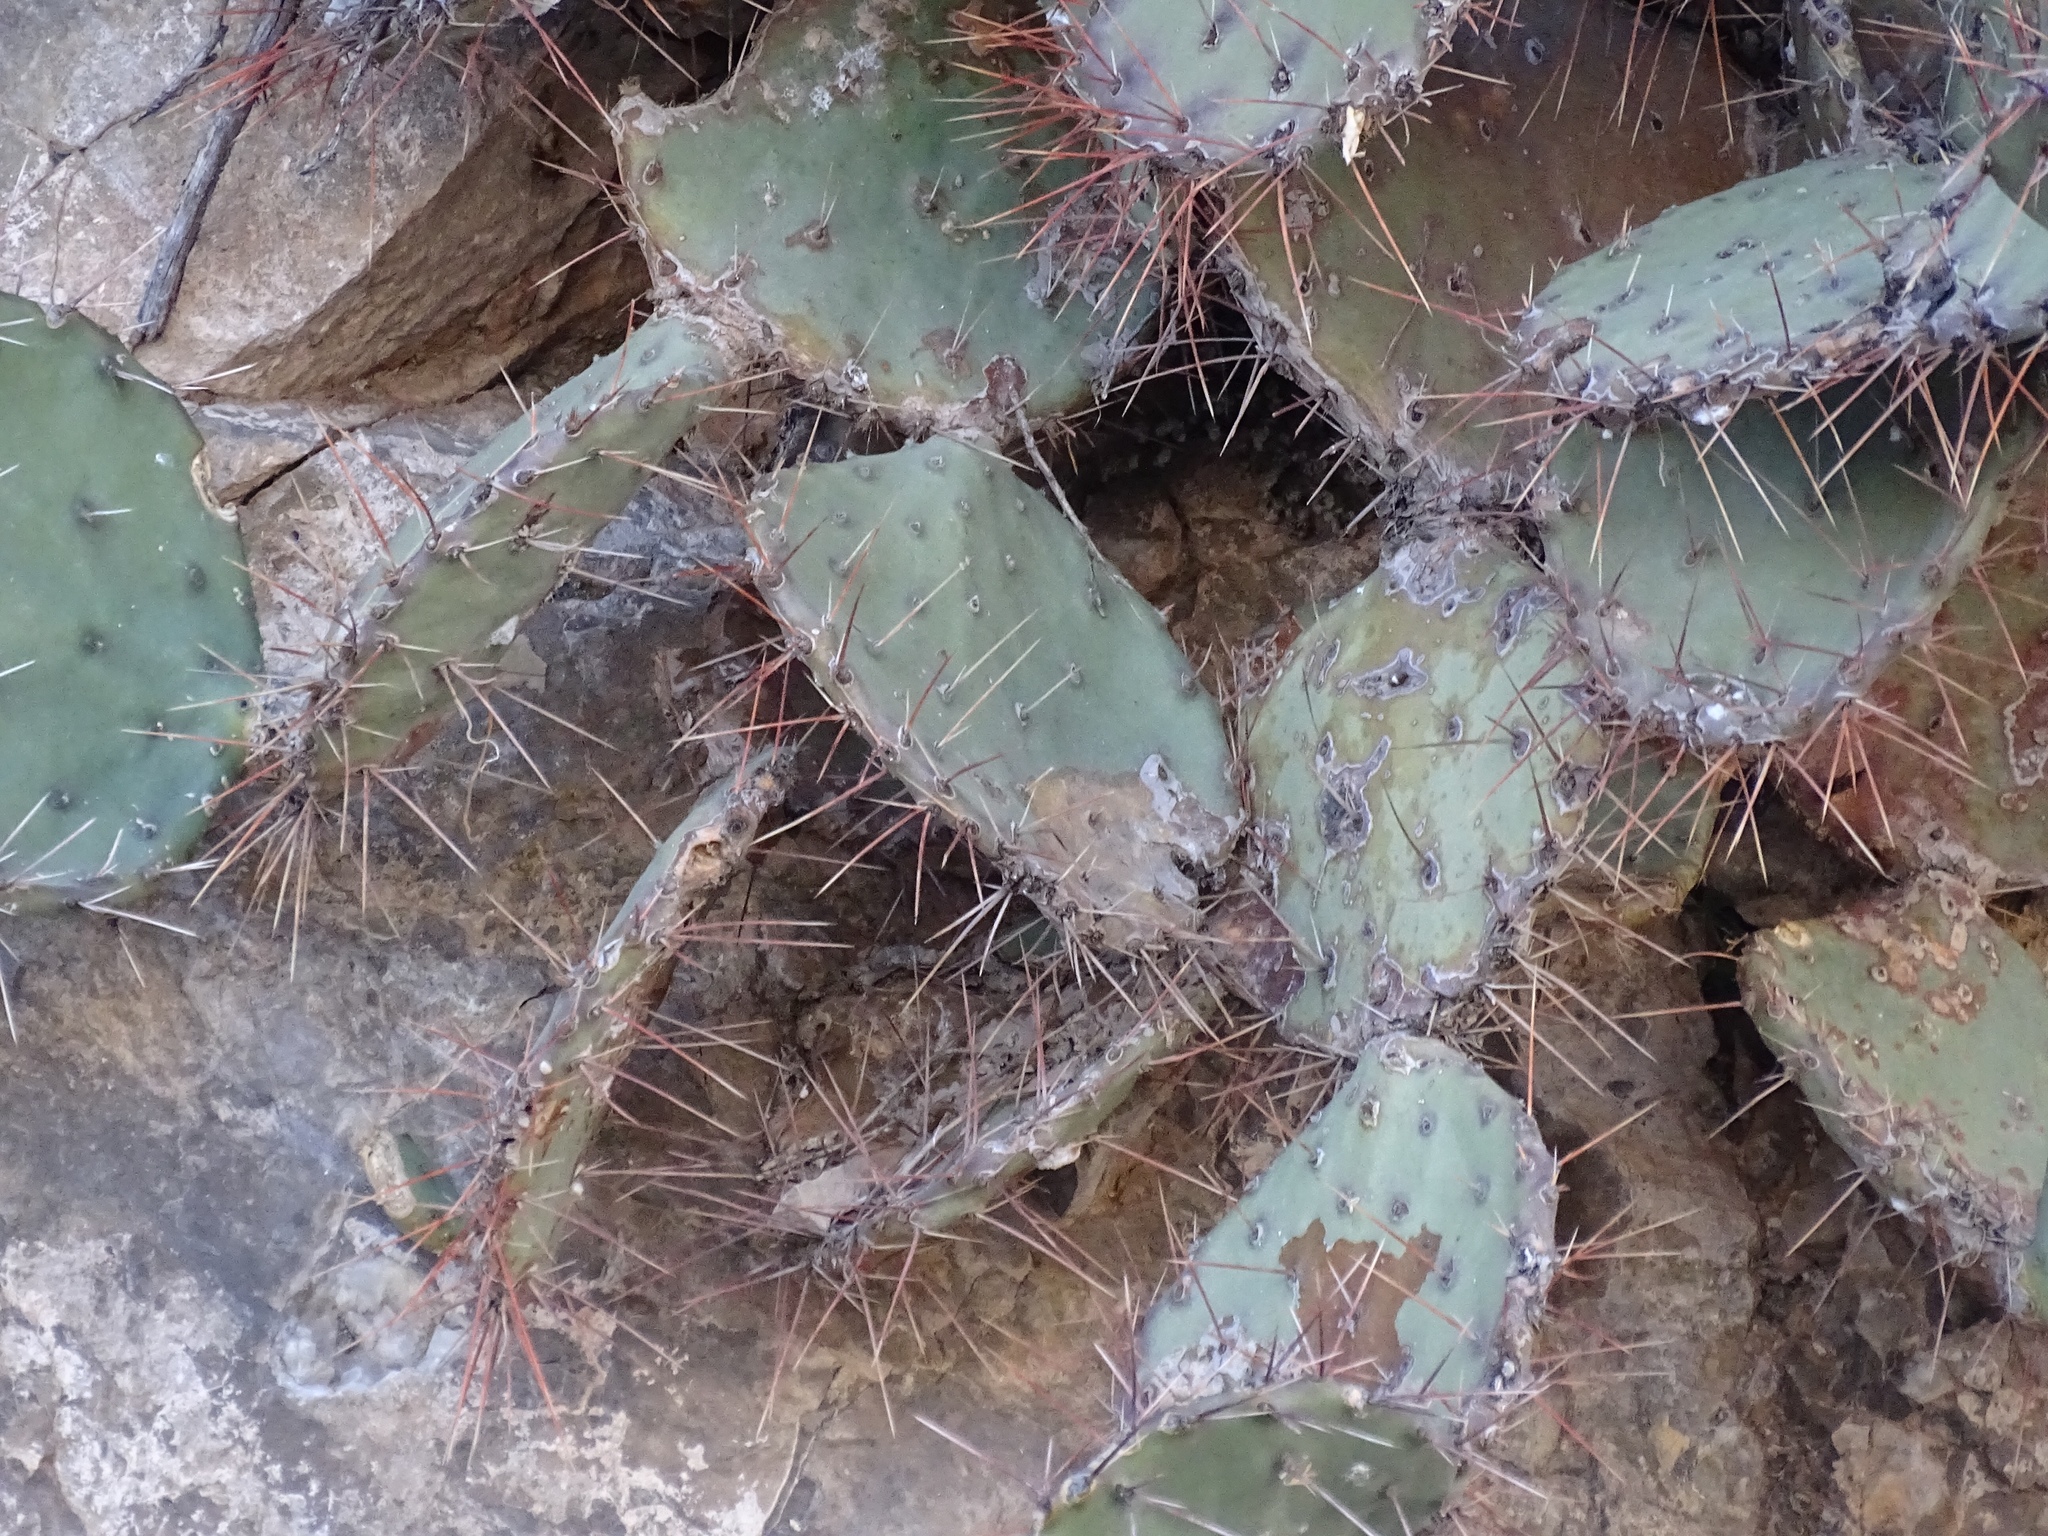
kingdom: Plantae
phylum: Tracheophyta
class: Magnoliopsida
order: Caryophyllales
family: Cactaceae
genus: Opuntia
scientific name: Opuntia phaeacantha
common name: New mexico prickly-pear
